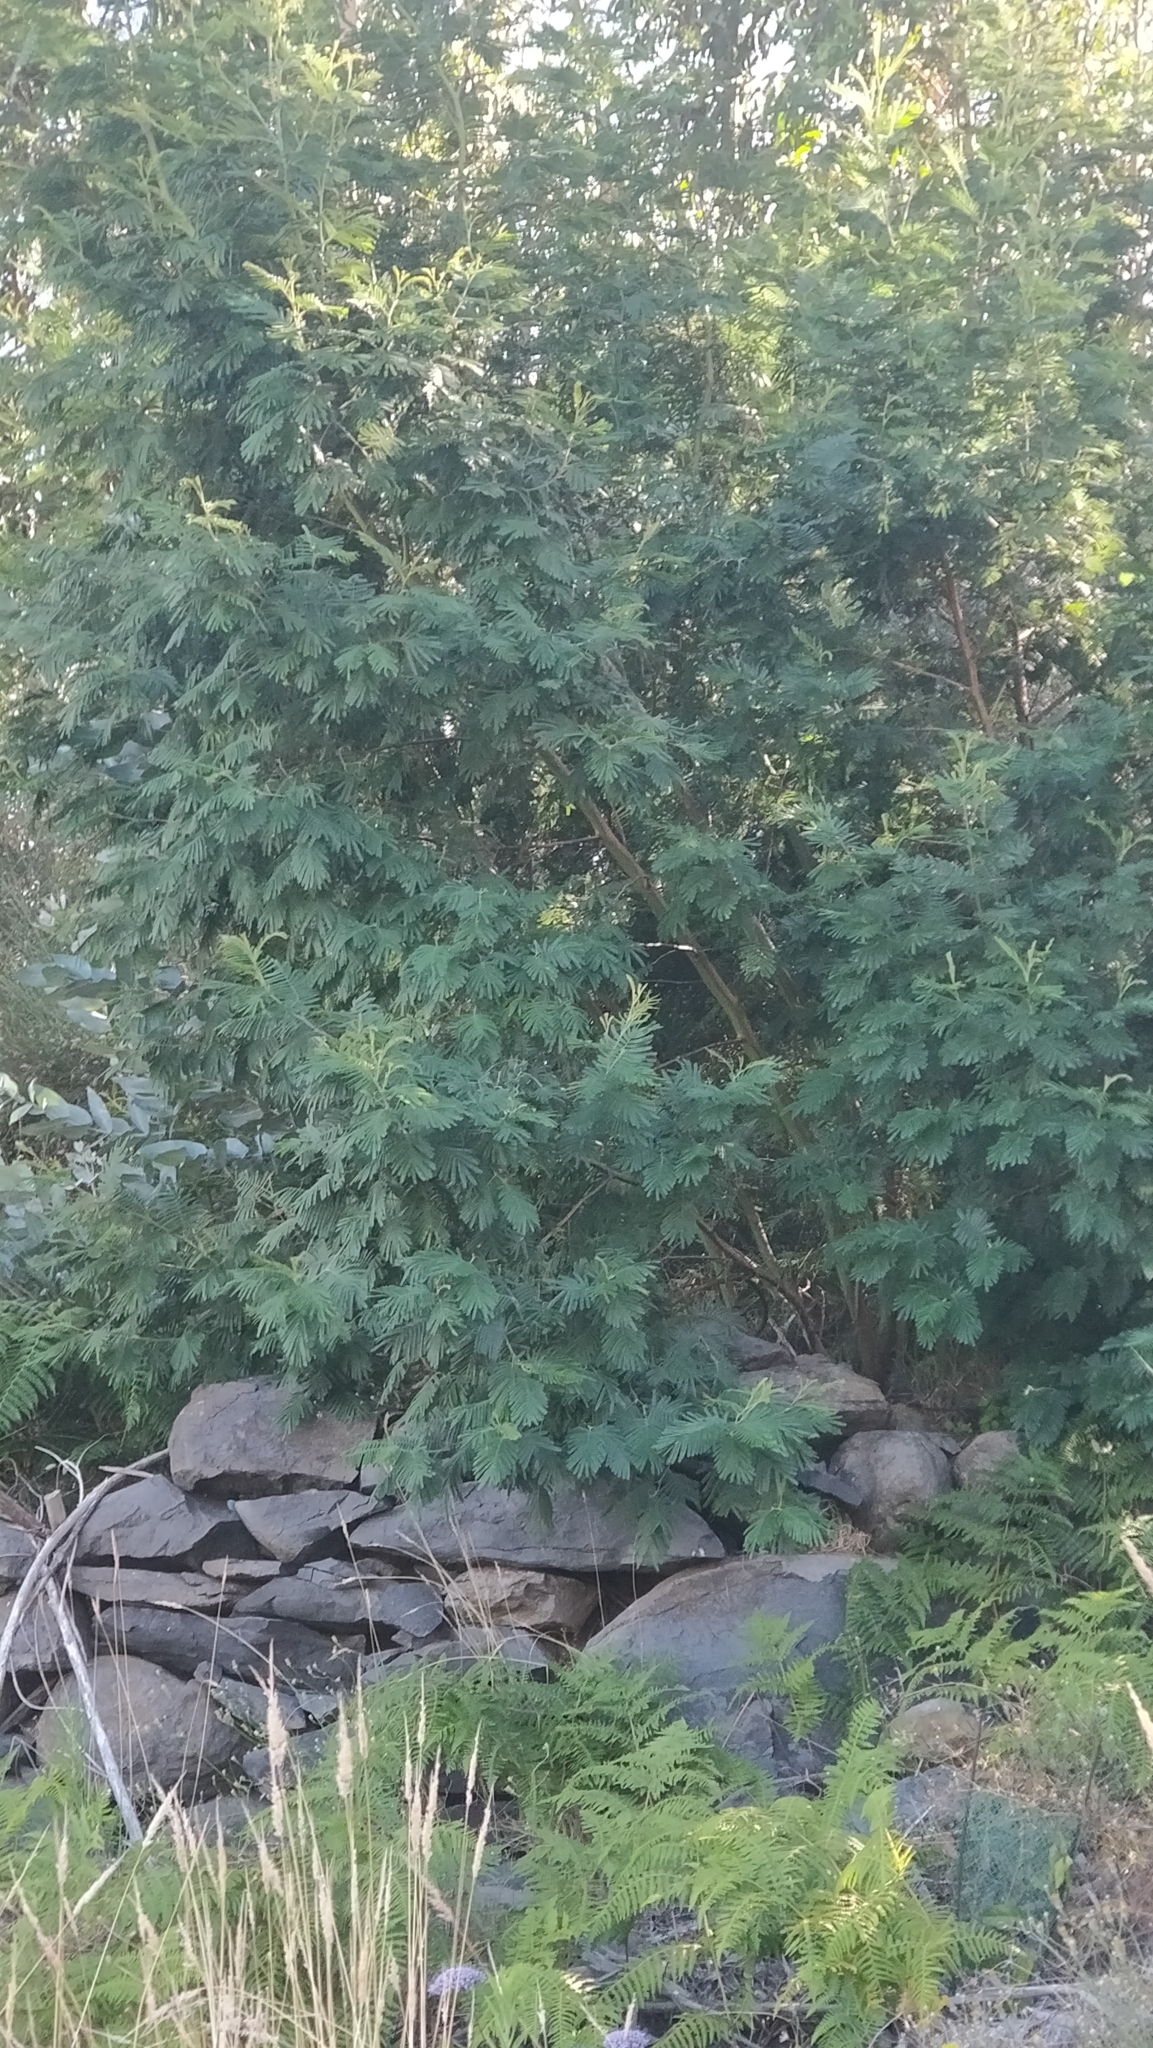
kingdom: Plantae
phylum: Tracheophyta
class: Magnoliopsida
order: Fabales
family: Fabaceae
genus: Acacia
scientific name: Acacia mearnsii
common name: Black wattle
